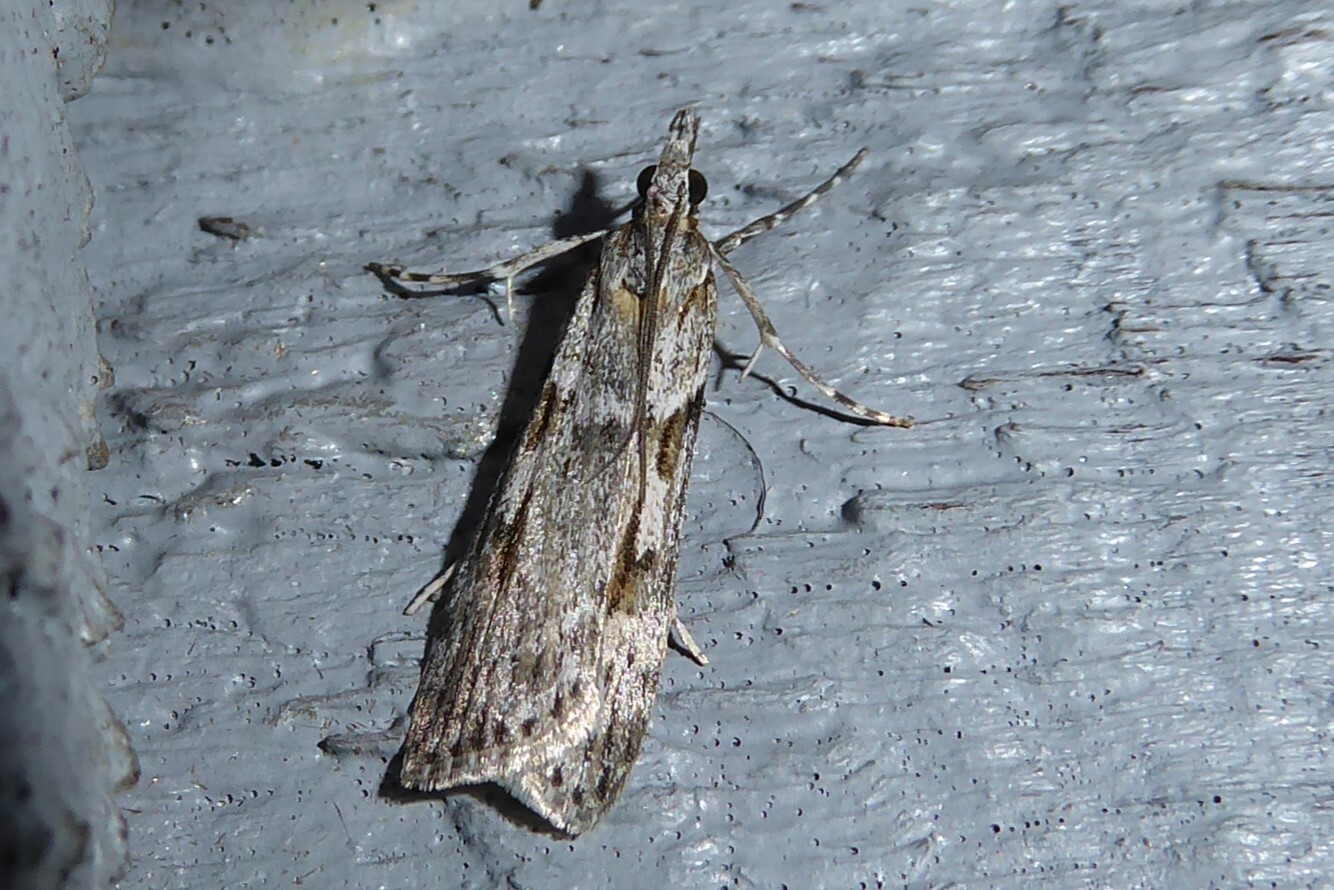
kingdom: Animalia
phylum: Arthropoda
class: Insecta
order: Lepidoptera
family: Crambidae
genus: Scoparia
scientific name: Scoparia halopis
